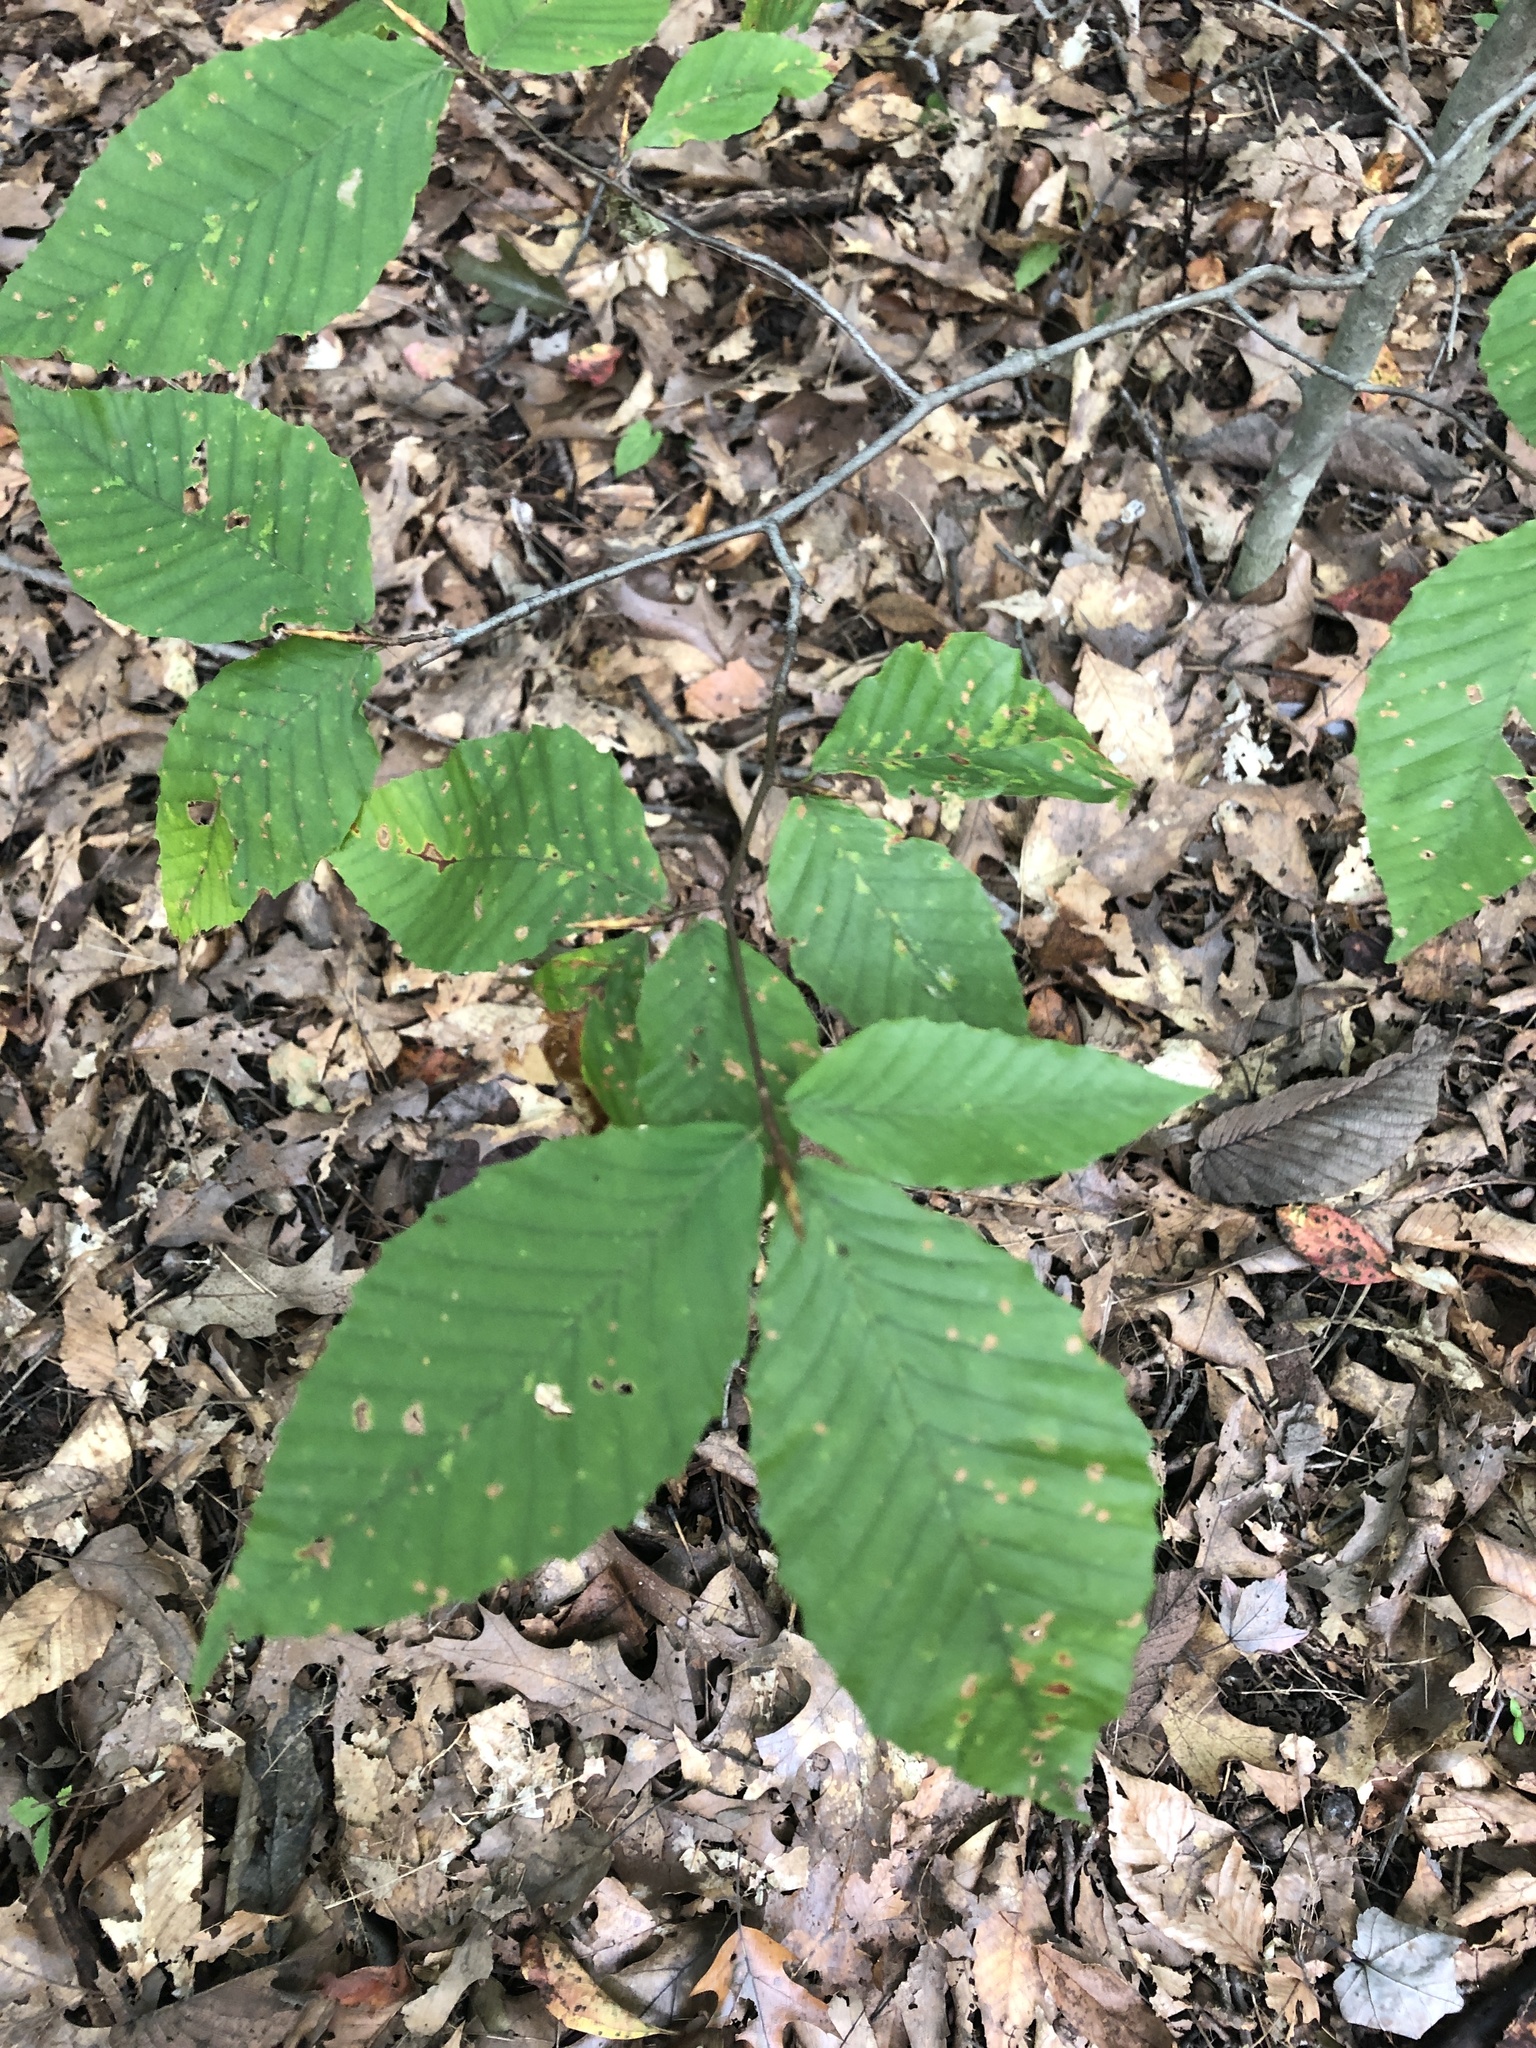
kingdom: Plantae
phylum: Tracheophyta
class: Magnoliopsida
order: Fagales
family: Fagaceae
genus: Fagus
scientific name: Fagus grandifolia
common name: American beech
